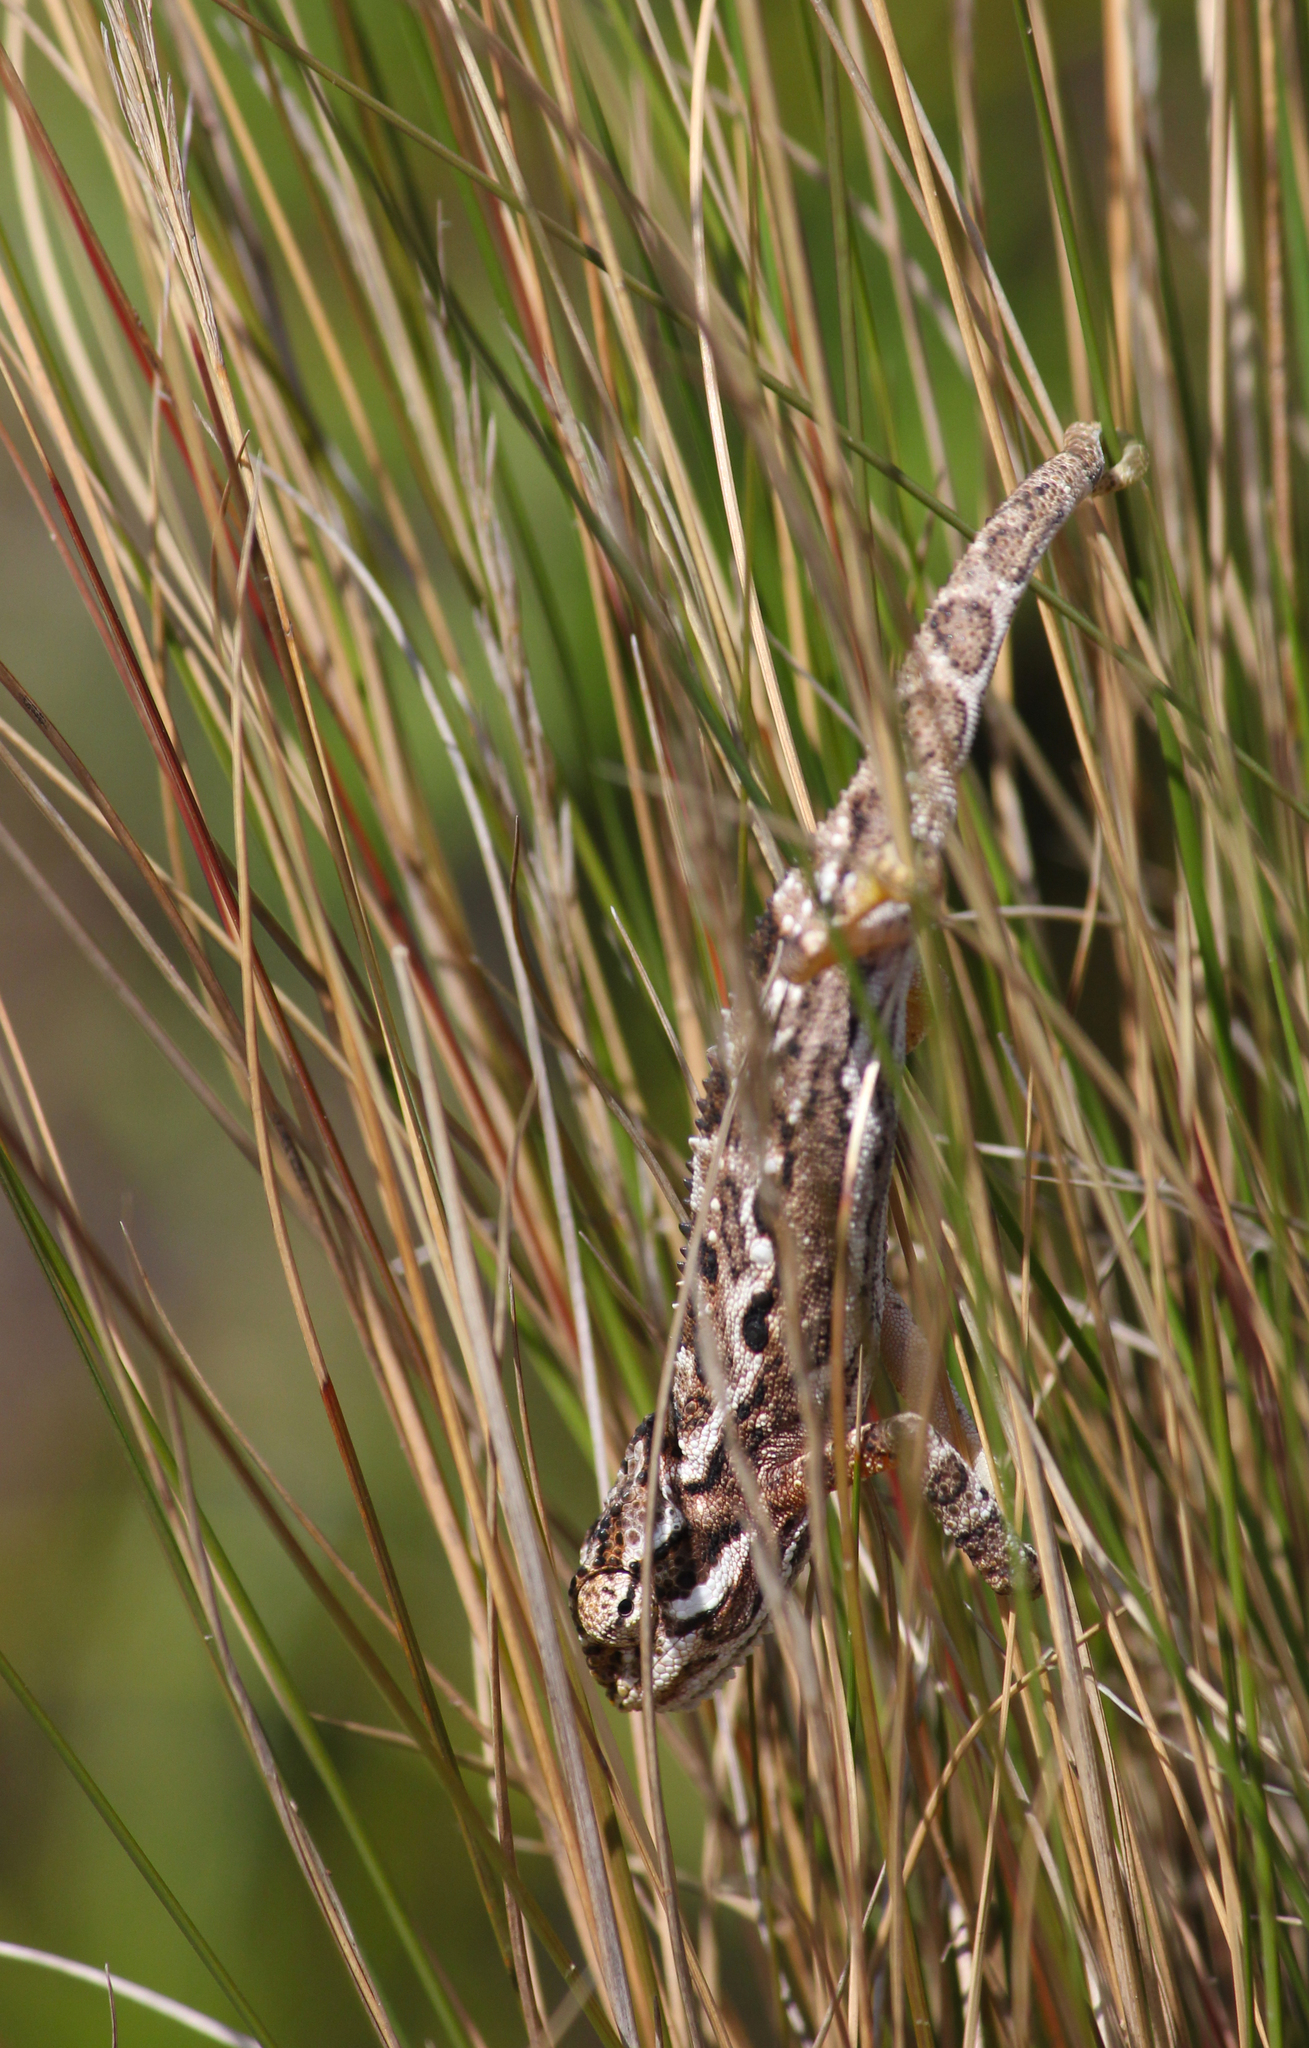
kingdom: Animalia
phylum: Chordata
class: Squamata
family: Chamaeleonidae
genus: Bradypodion
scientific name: Bradypodion pumilum
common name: Cape dwarf chameleon
